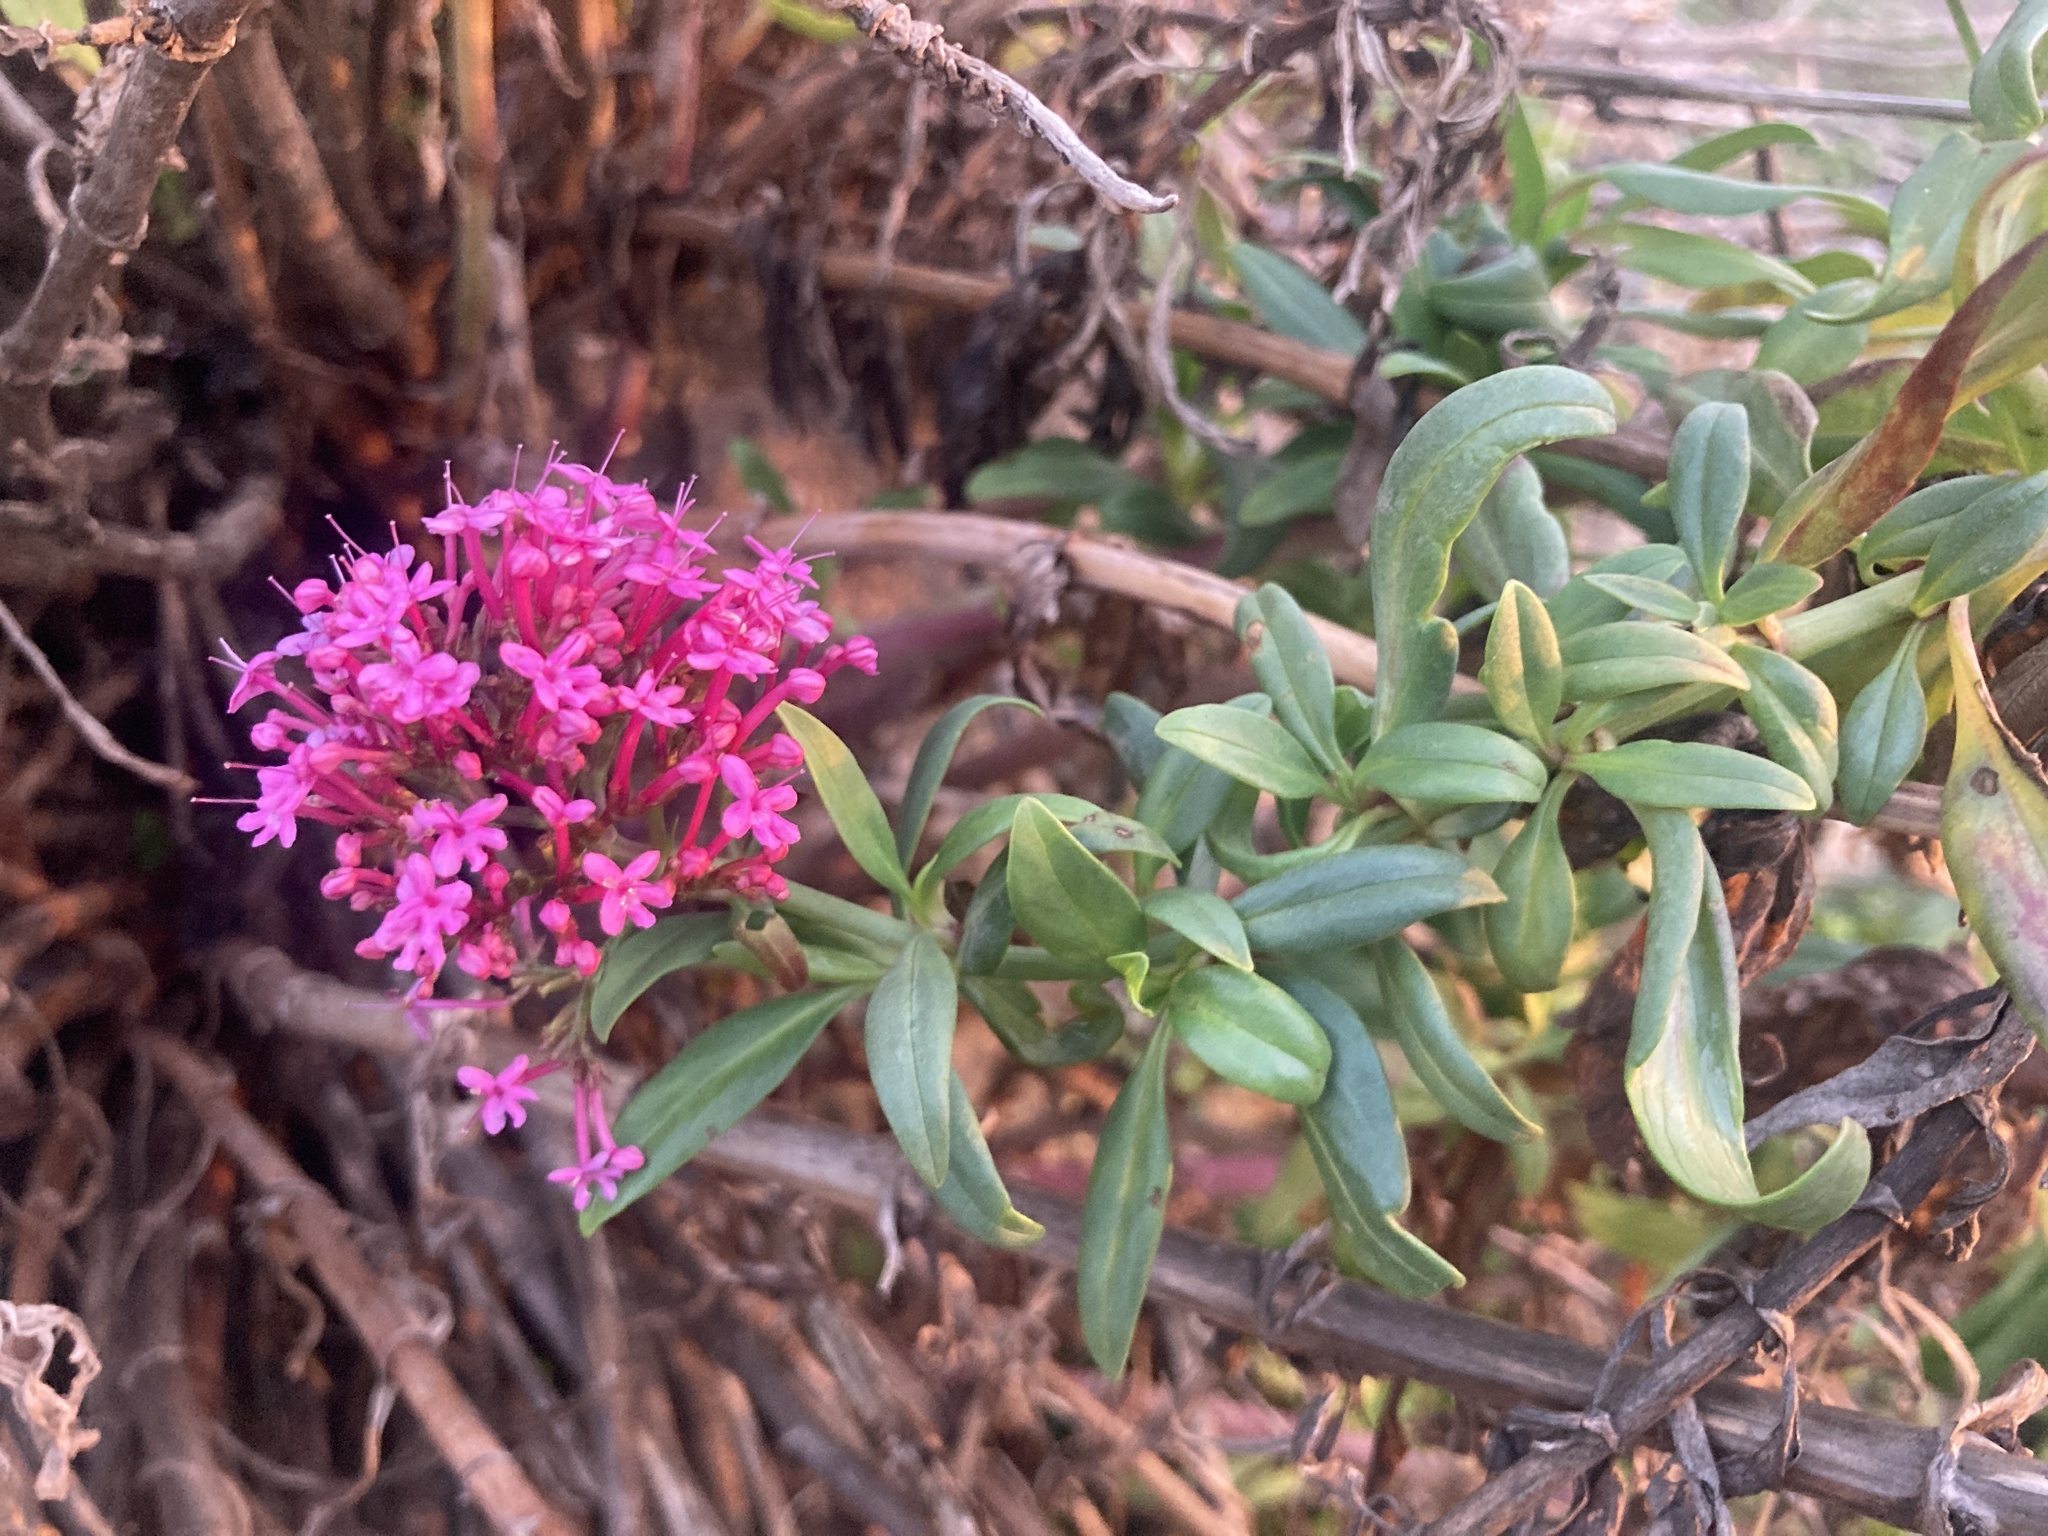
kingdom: Plantae
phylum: Tracheophyta
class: Magnoliopsida
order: Dipsacales
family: Caprifoliaceae
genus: Centranthus
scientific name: Centranthus ruber
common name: Red valerian
